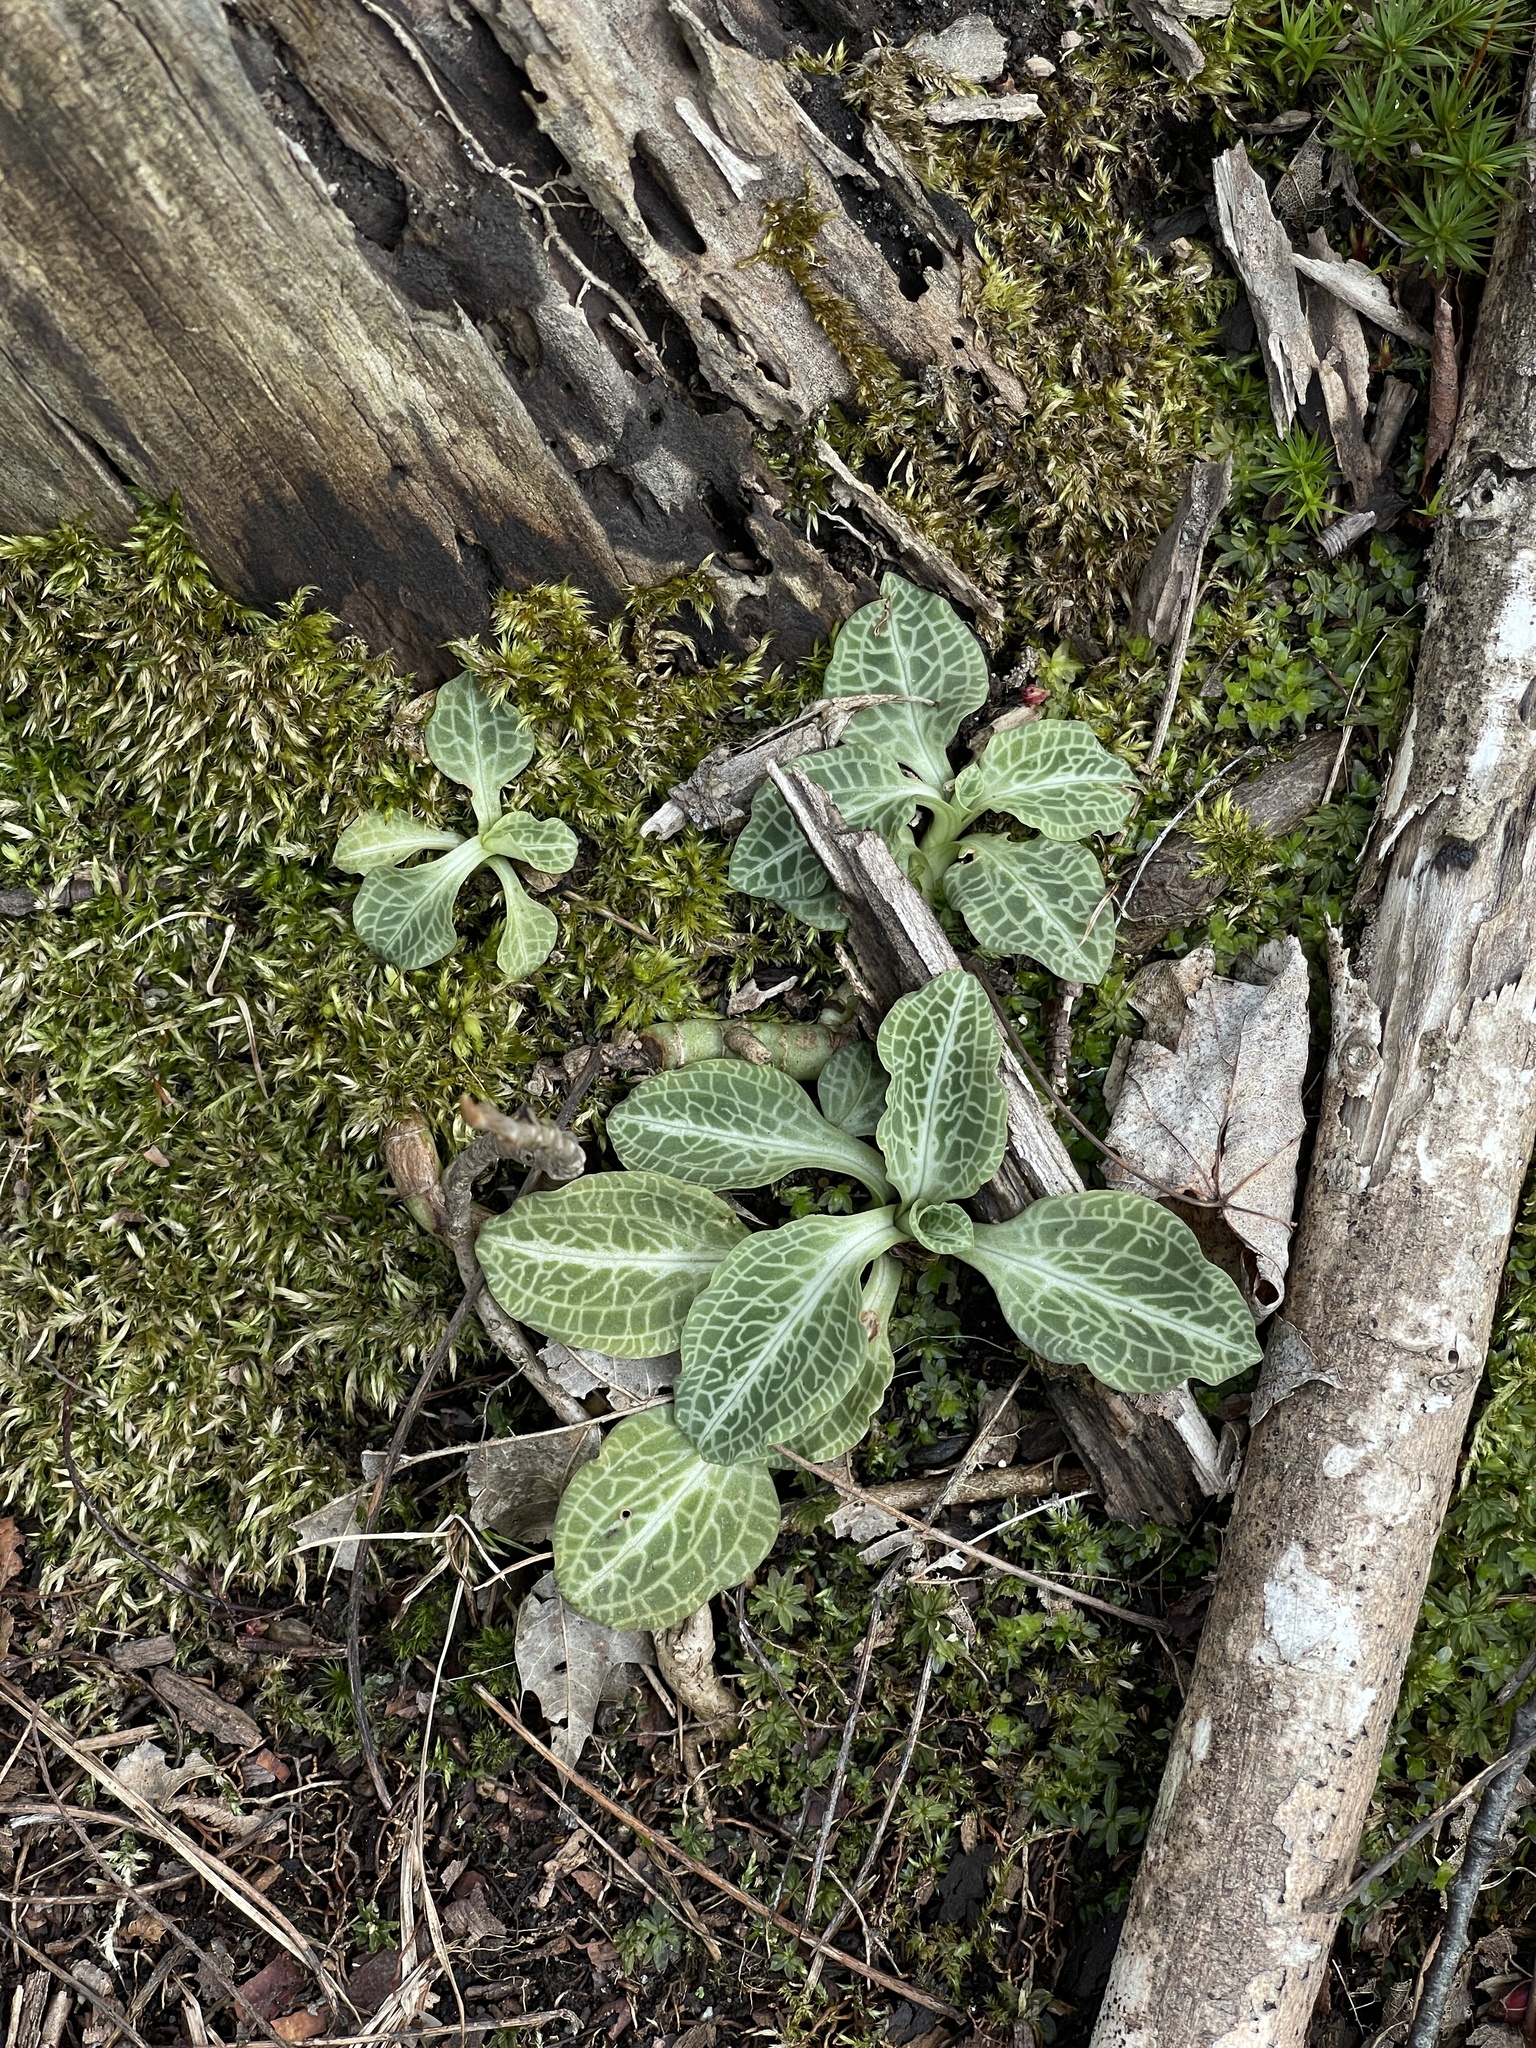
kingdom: Plantae
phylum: Tracheophyta
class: Liliopsida
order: Asparagales
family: Orchidaceae
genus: Goodyera
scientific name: Goodyera pubescens
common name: Downy rattlesnake-plantain
